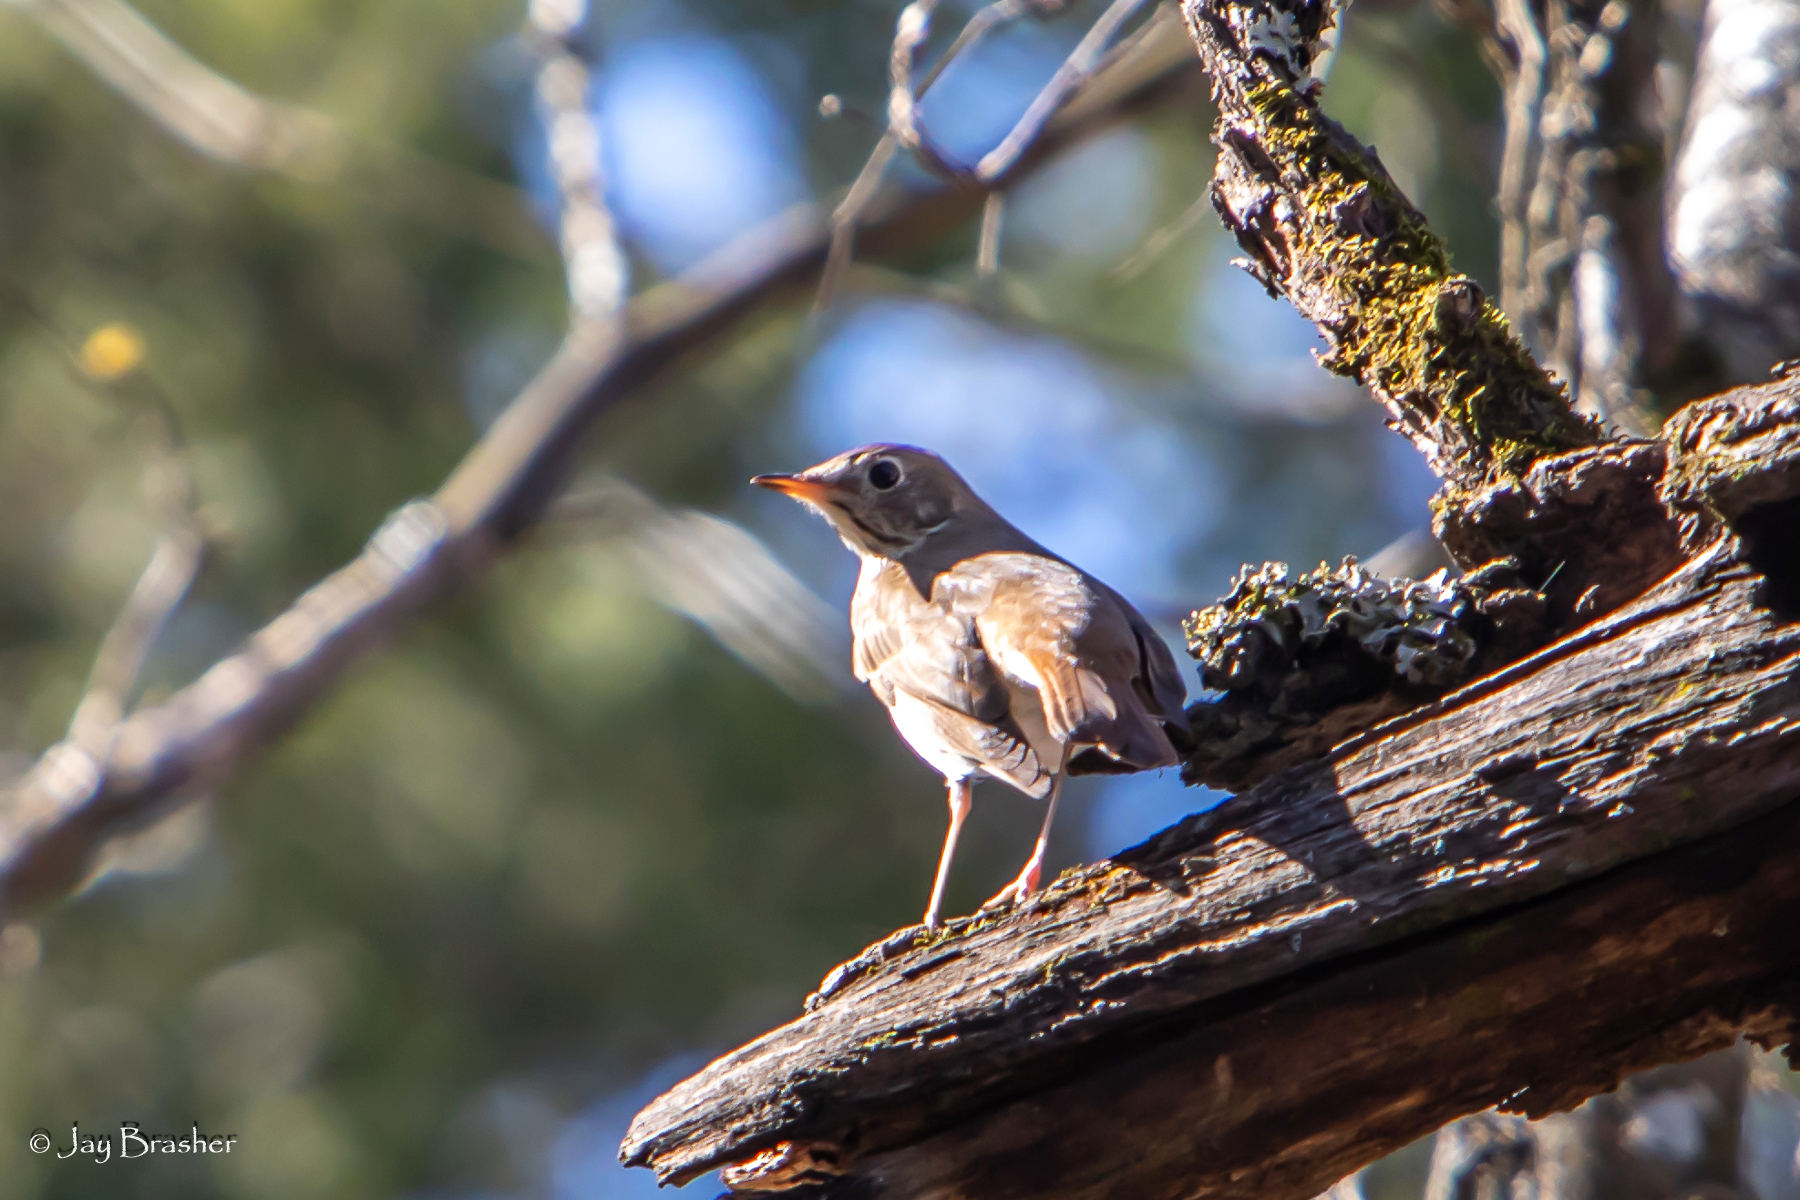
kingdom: Animalia
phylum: Chordata
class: Aves
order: Passeriformes
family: Turdidae
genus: Catharus
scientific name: Catharus guttatus
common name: Hermit thrush
